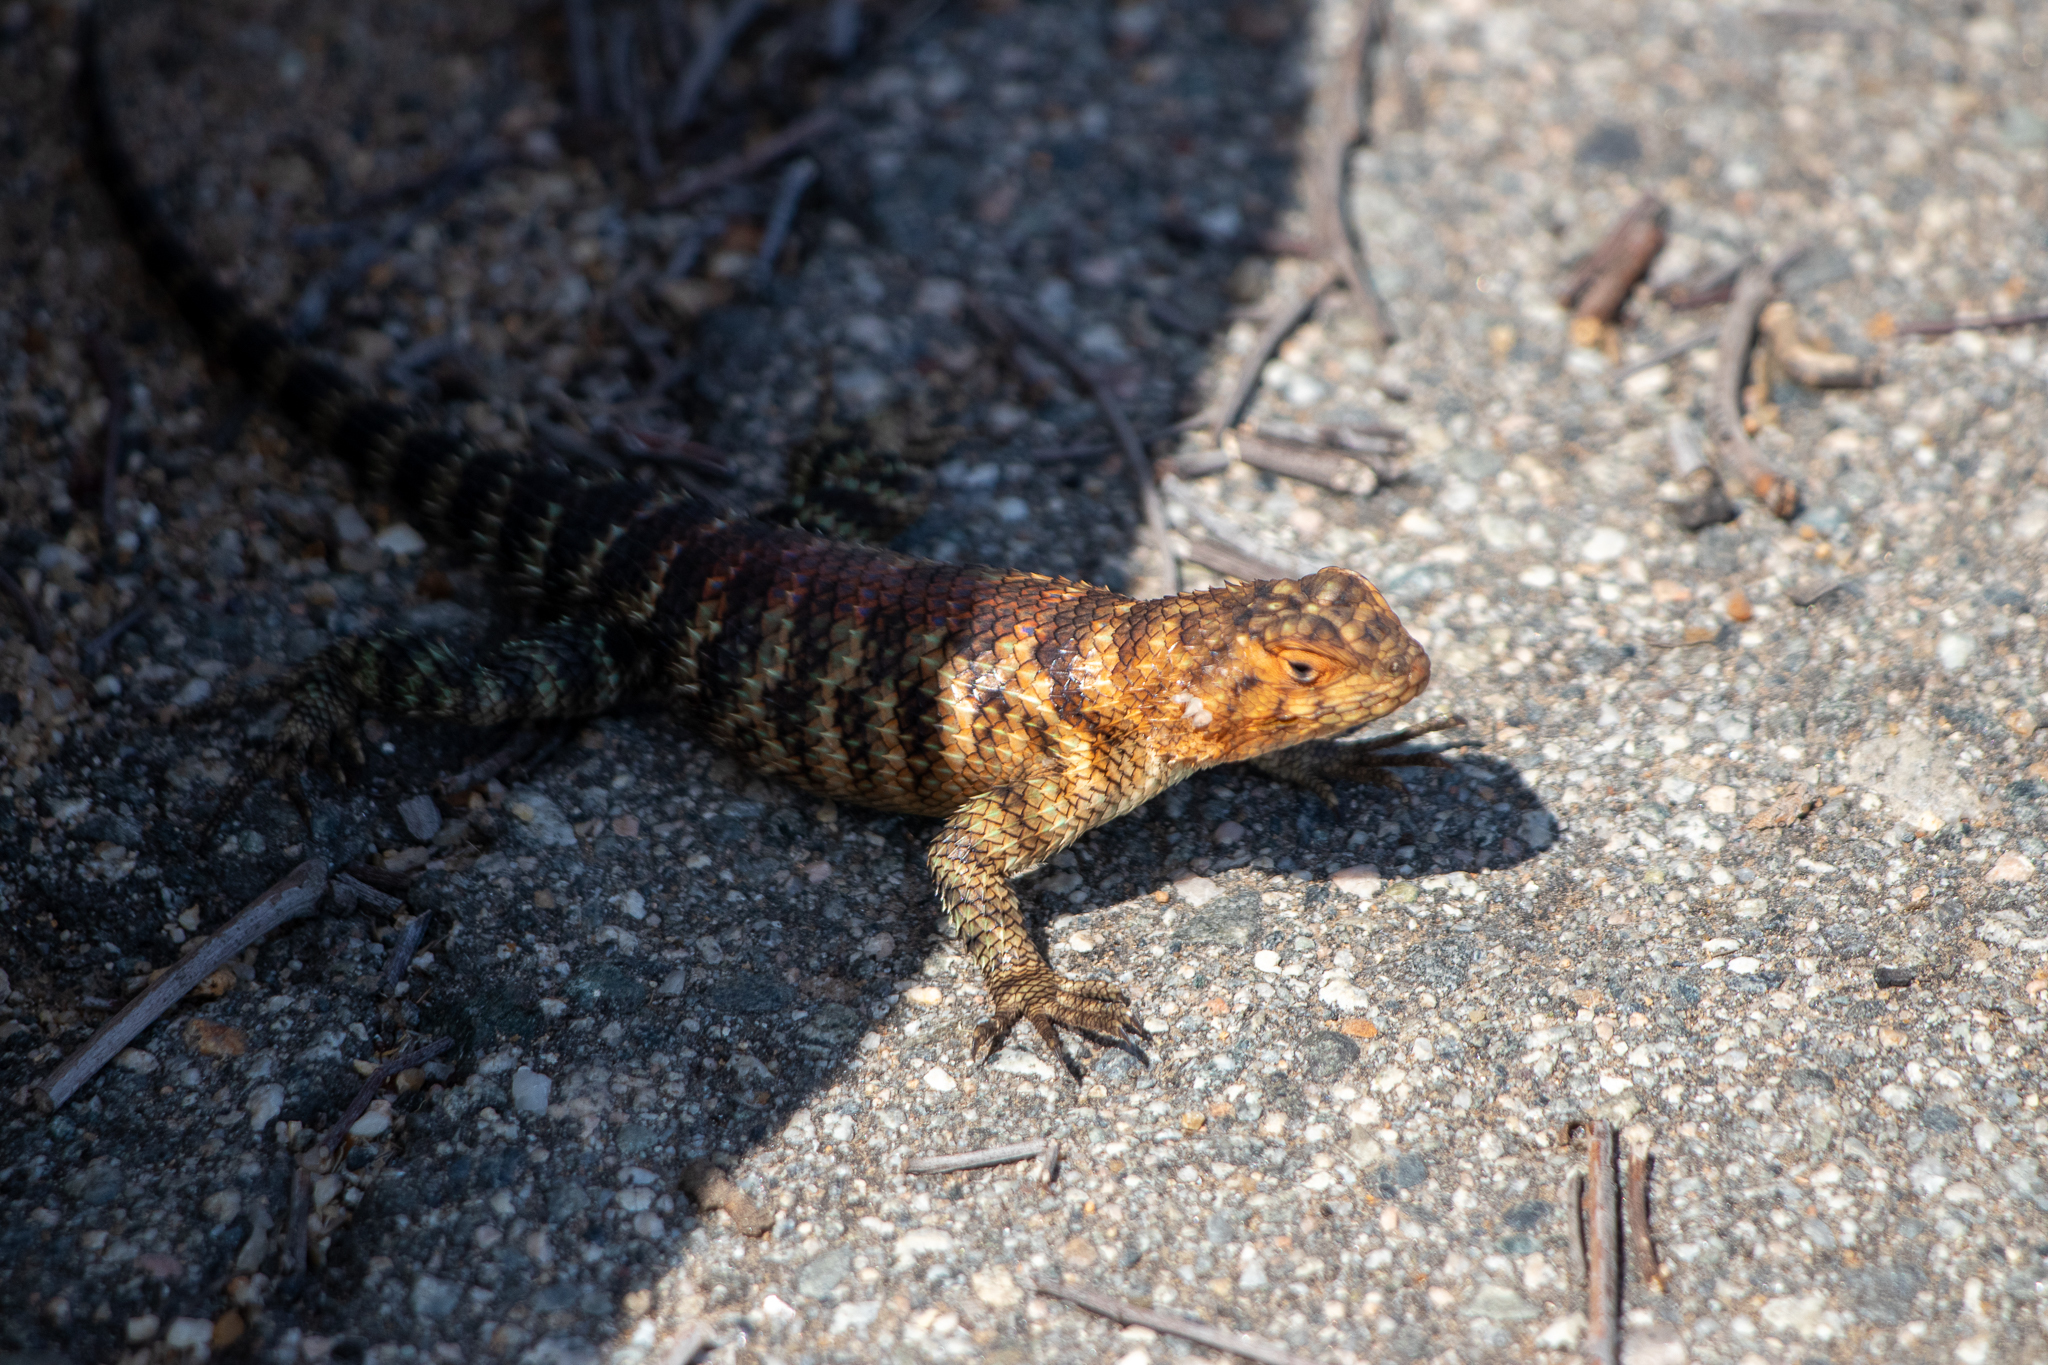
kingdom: Animalia
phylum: Chordata
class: Squamata
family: Phrynosomatidae
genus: Sceloporus
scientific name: Sceloporus orcutti
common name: Granite spiny lizard
